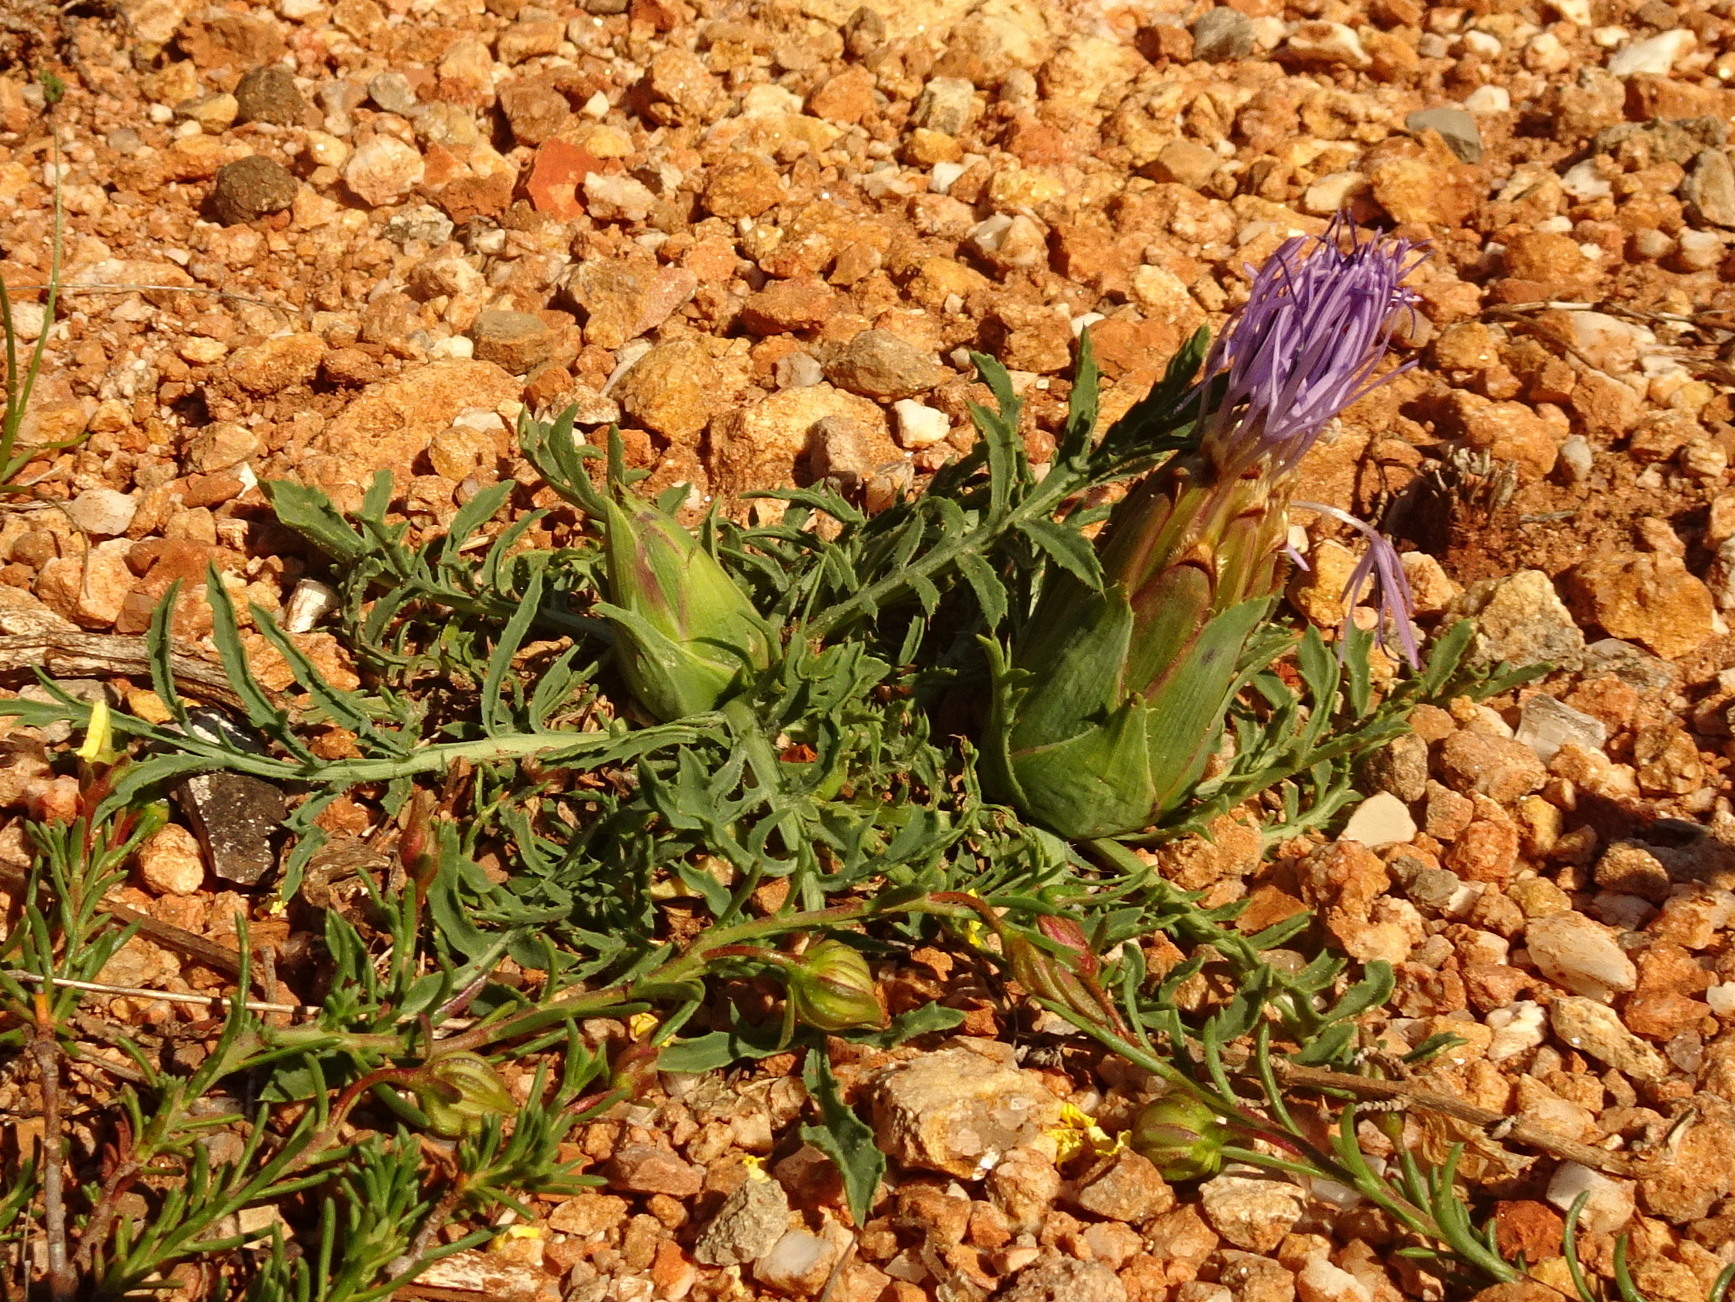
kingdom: Plantae
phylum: Tracheophyta
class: Magnoliopsida
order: Asterales
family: Asteraceae
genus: Carduncellus
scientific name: Carduncellus mitissimus
